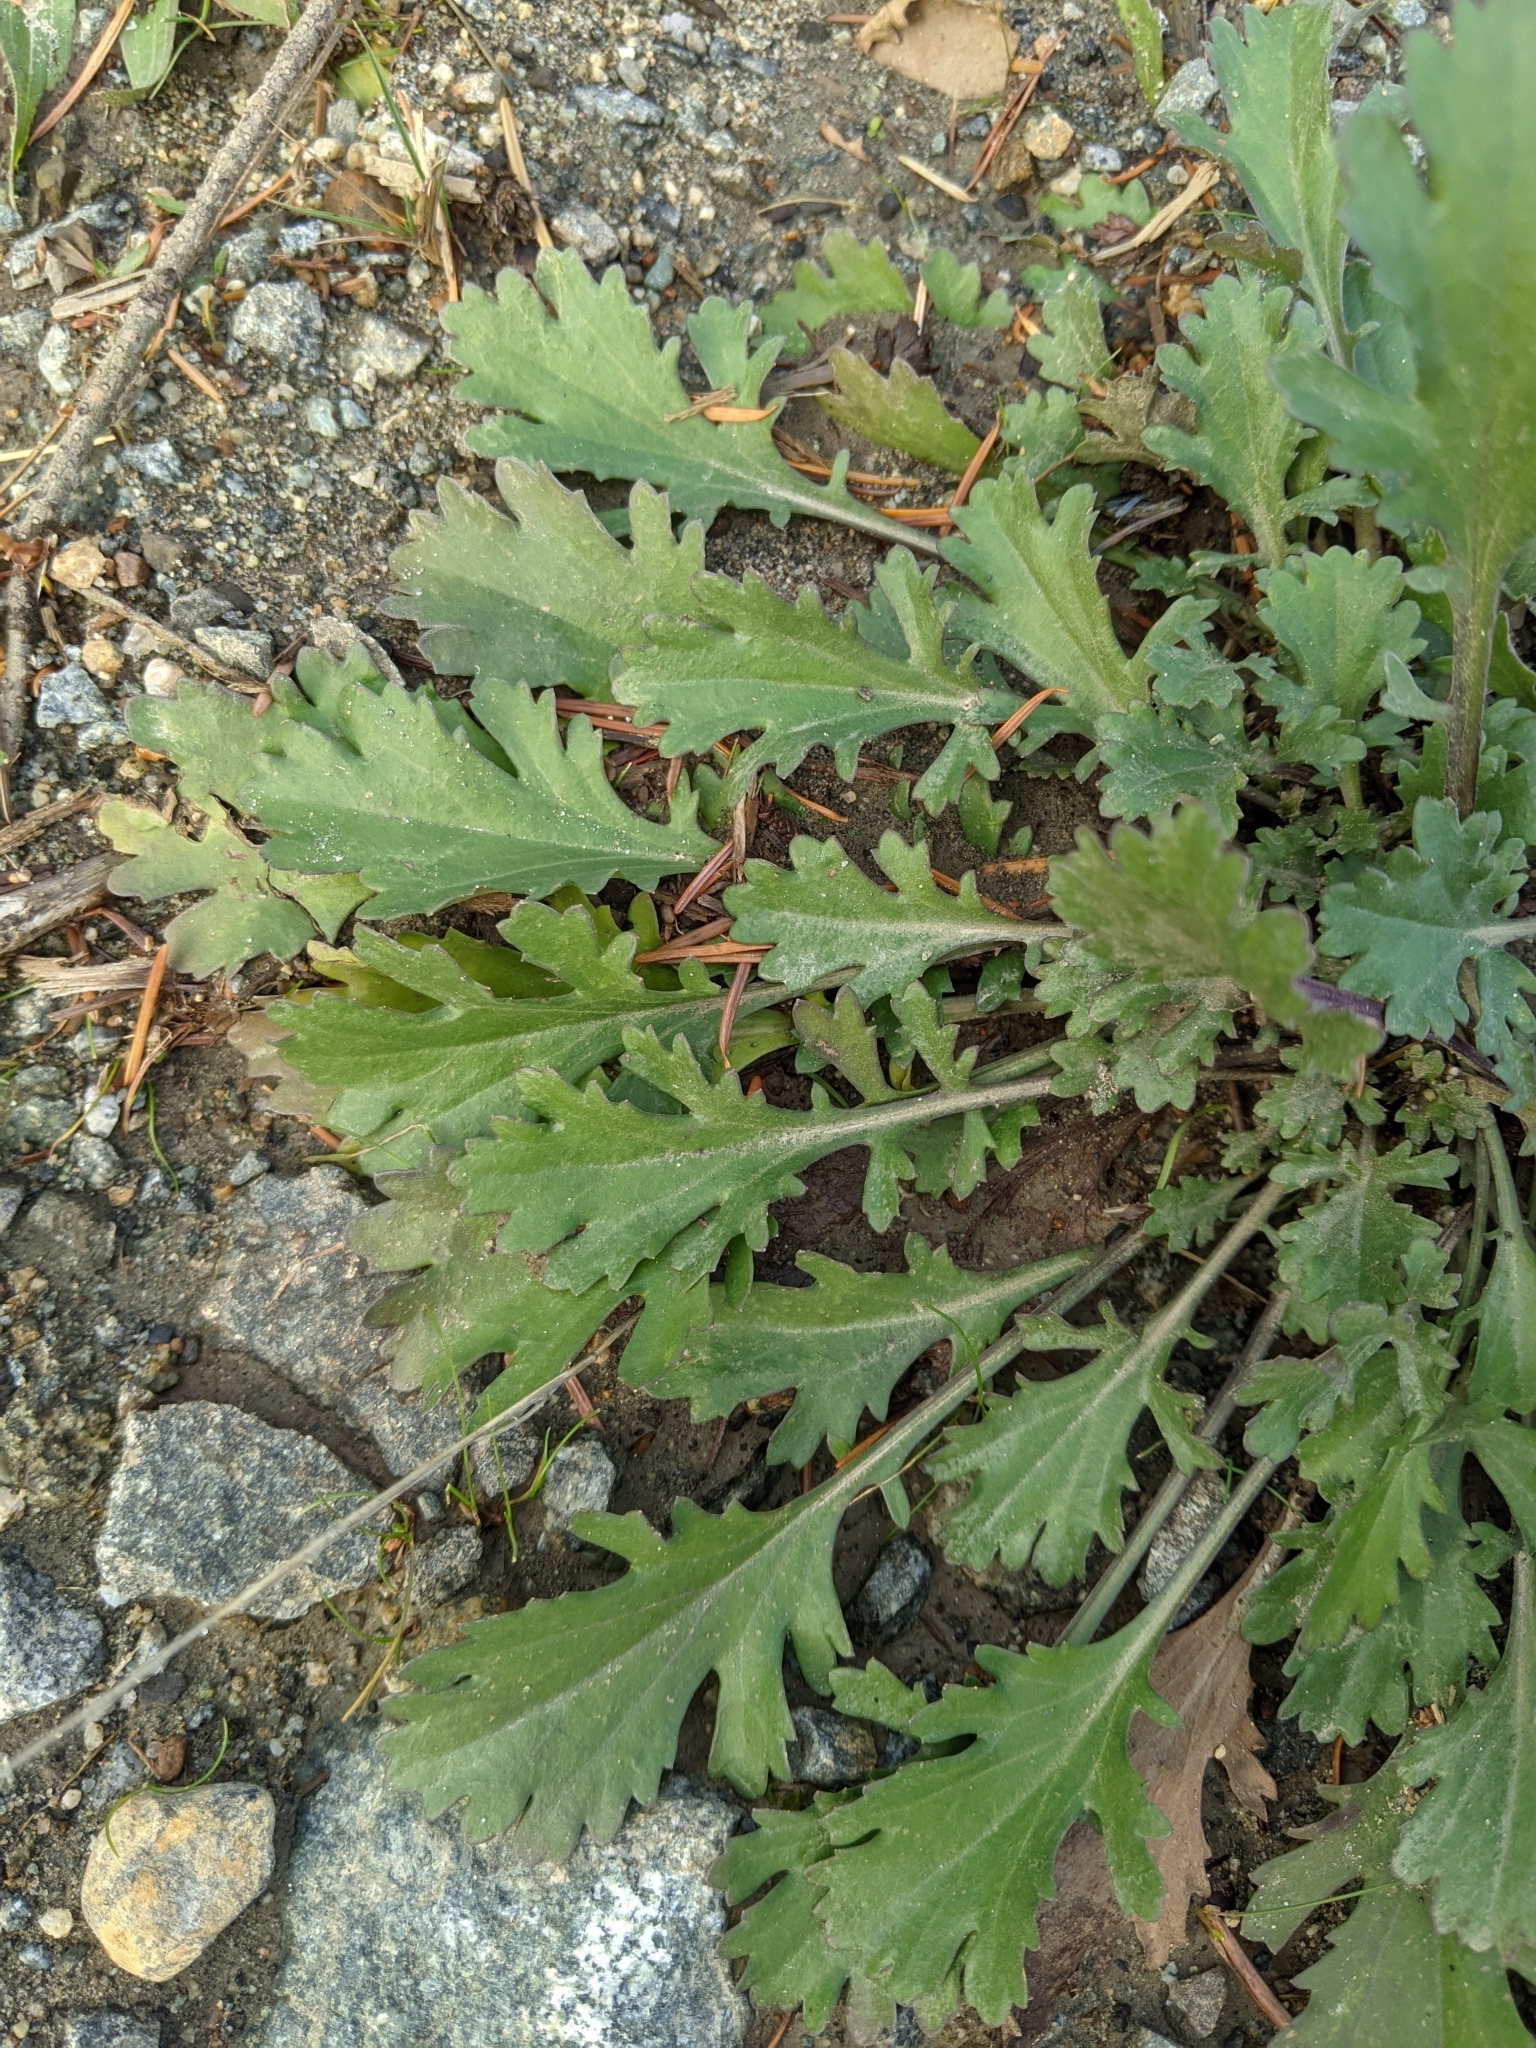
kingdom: Plantae
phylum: Tracheophyta
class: Magnoliopsida
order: Asterales
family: Asteraceae
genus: Leucanthemum
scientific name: Leucanthemum vulgare
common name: Oxeye daisy
